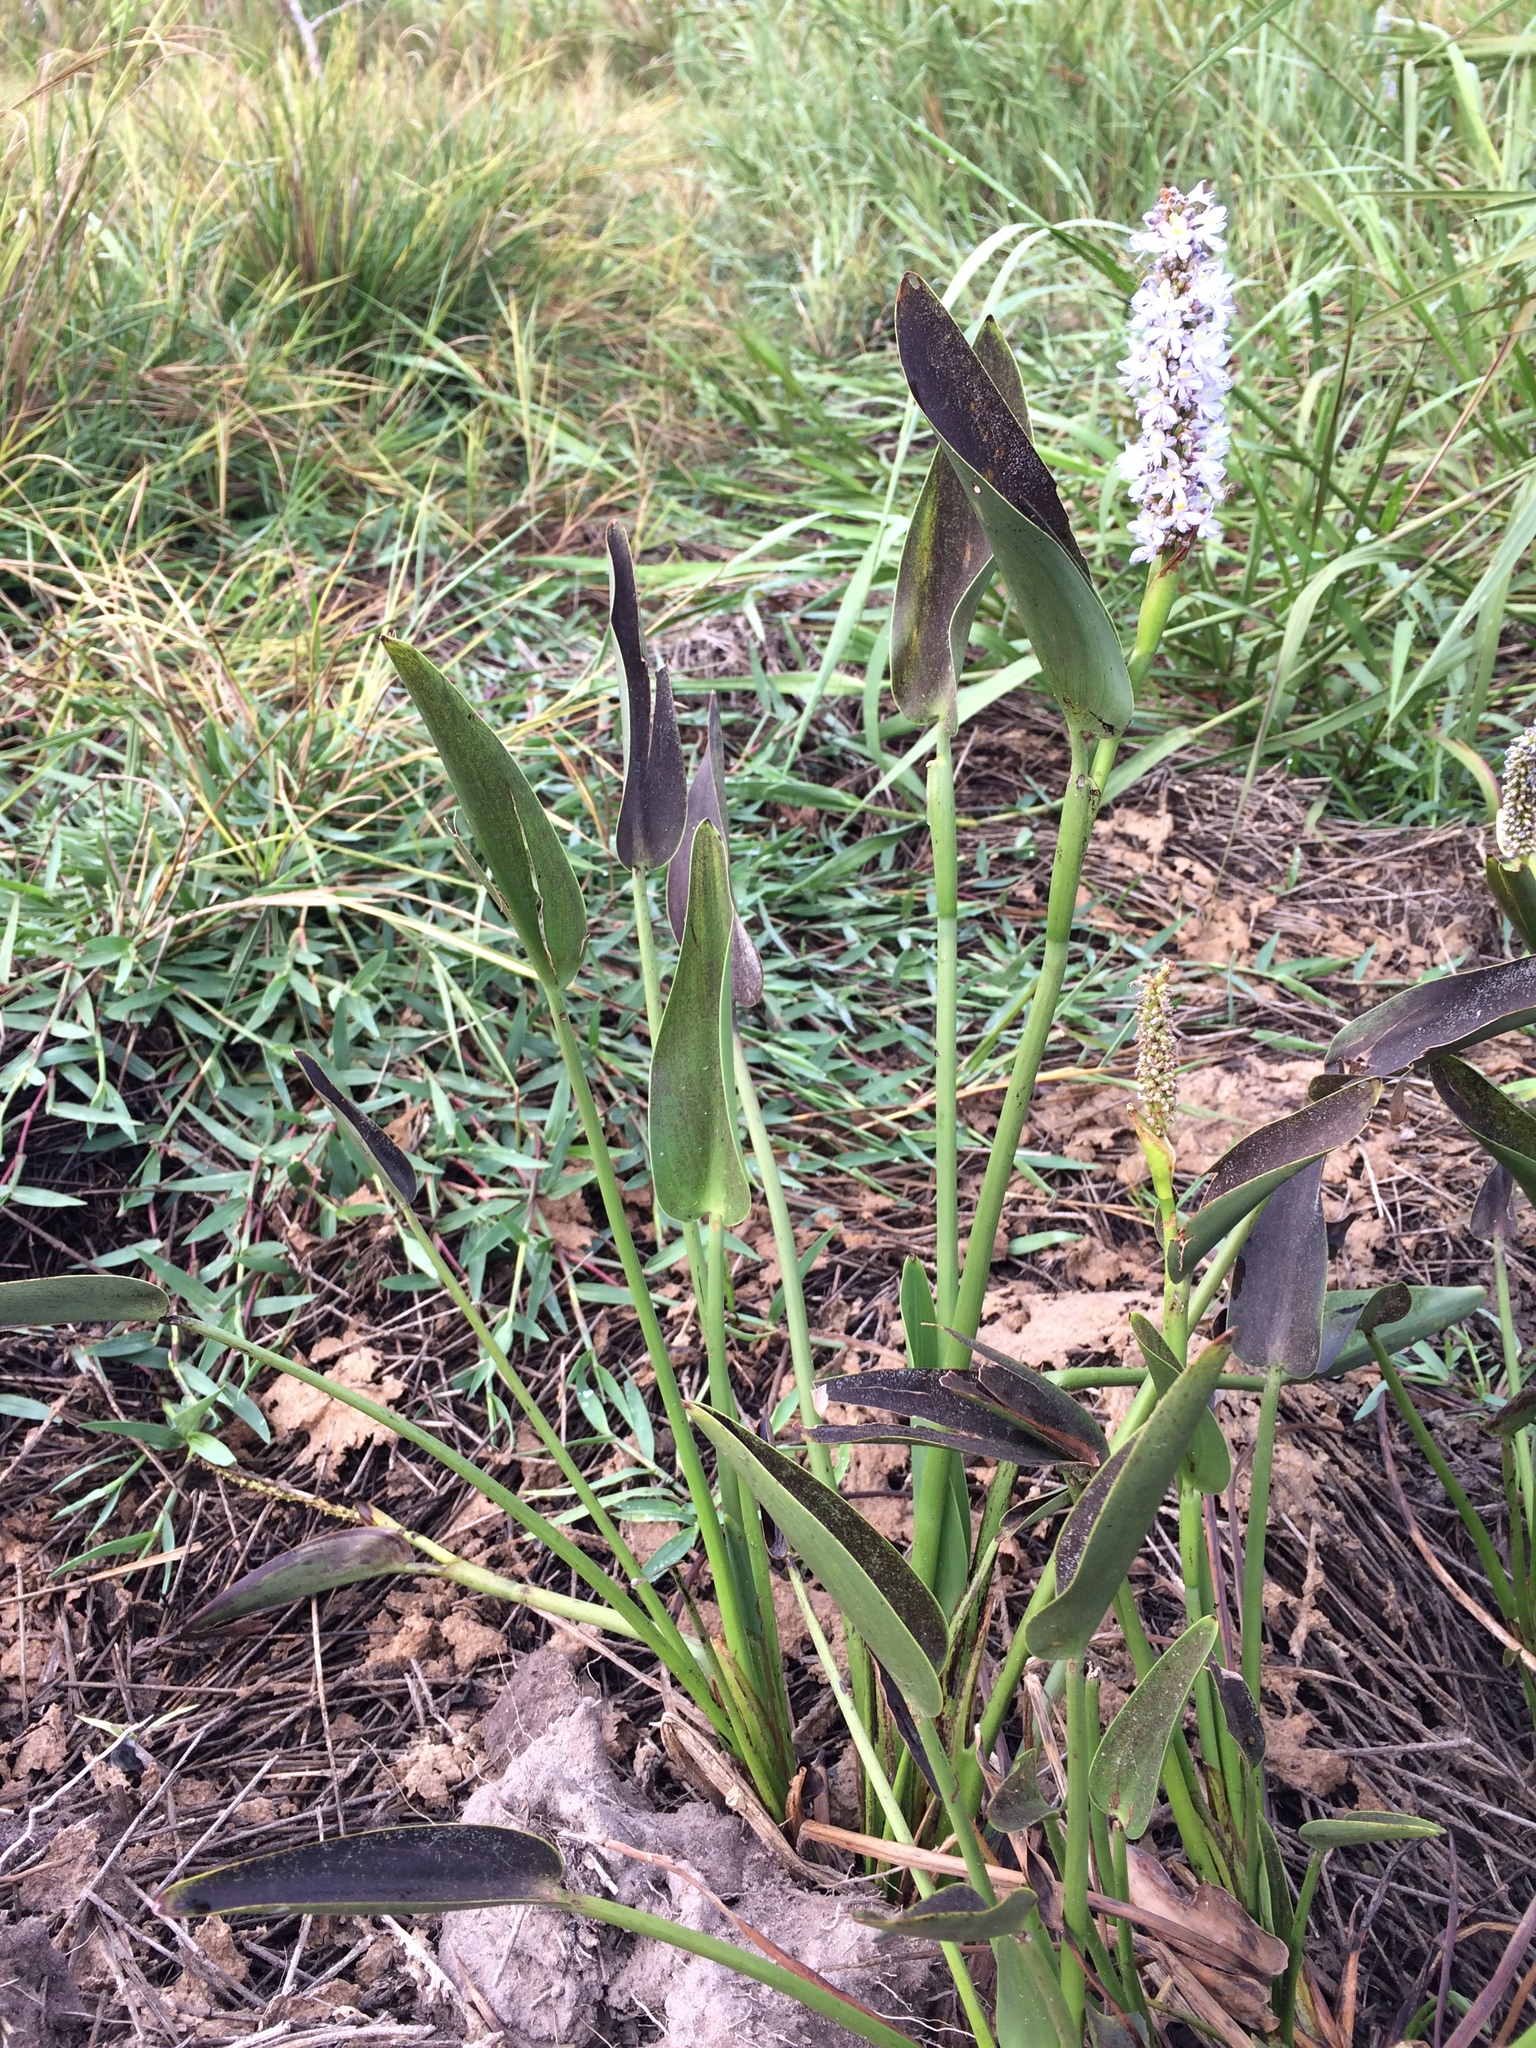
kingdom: Plantae
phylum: Tracheophyta
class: Liliopsida
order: Commelinales
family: Pontederiaceae
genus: Pontederia
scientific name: Pontederia cordata
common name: Pickerelweed
